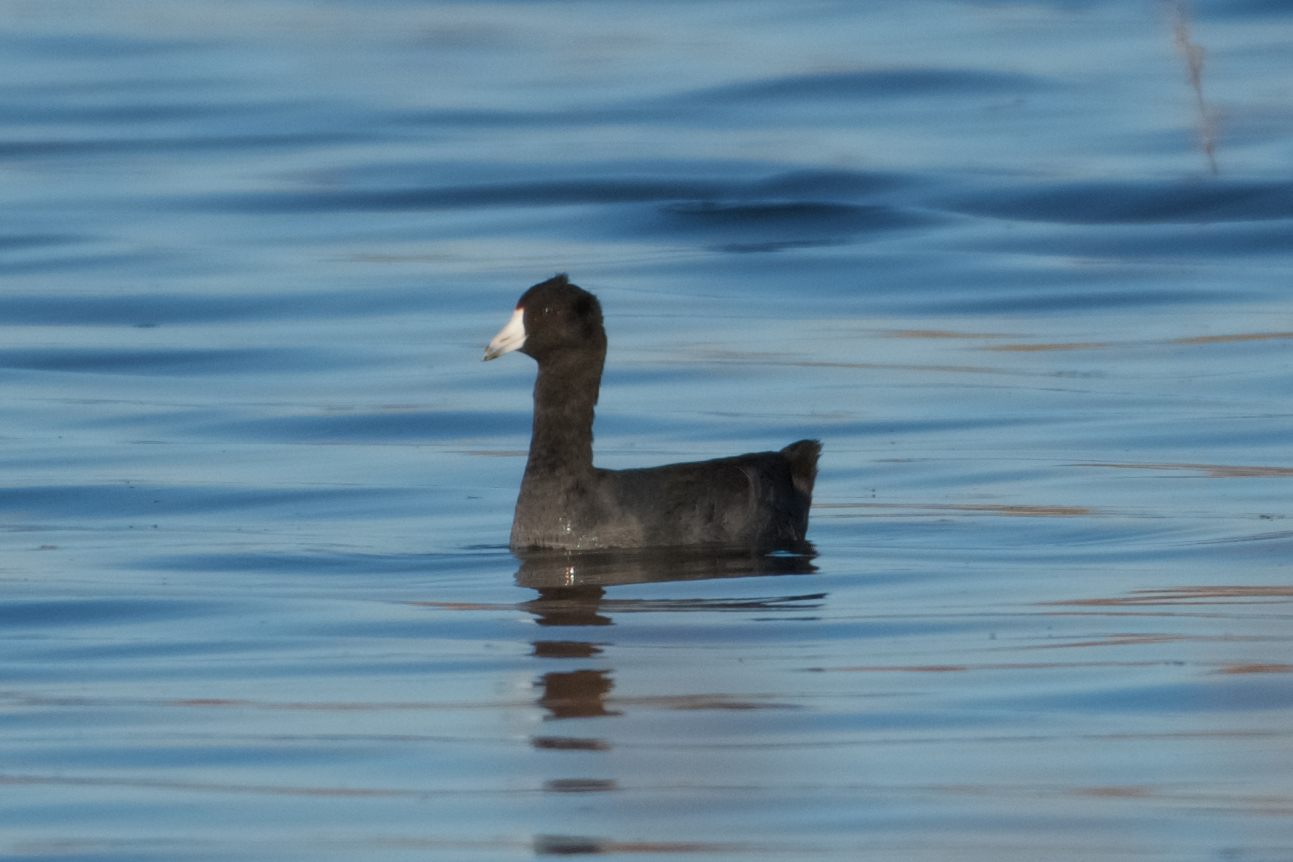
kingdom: Animalia
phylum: Chordata
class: Aves
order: Gruiformes
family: Rallidae
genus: Fulica
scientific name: Fulica americana
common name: American coot
